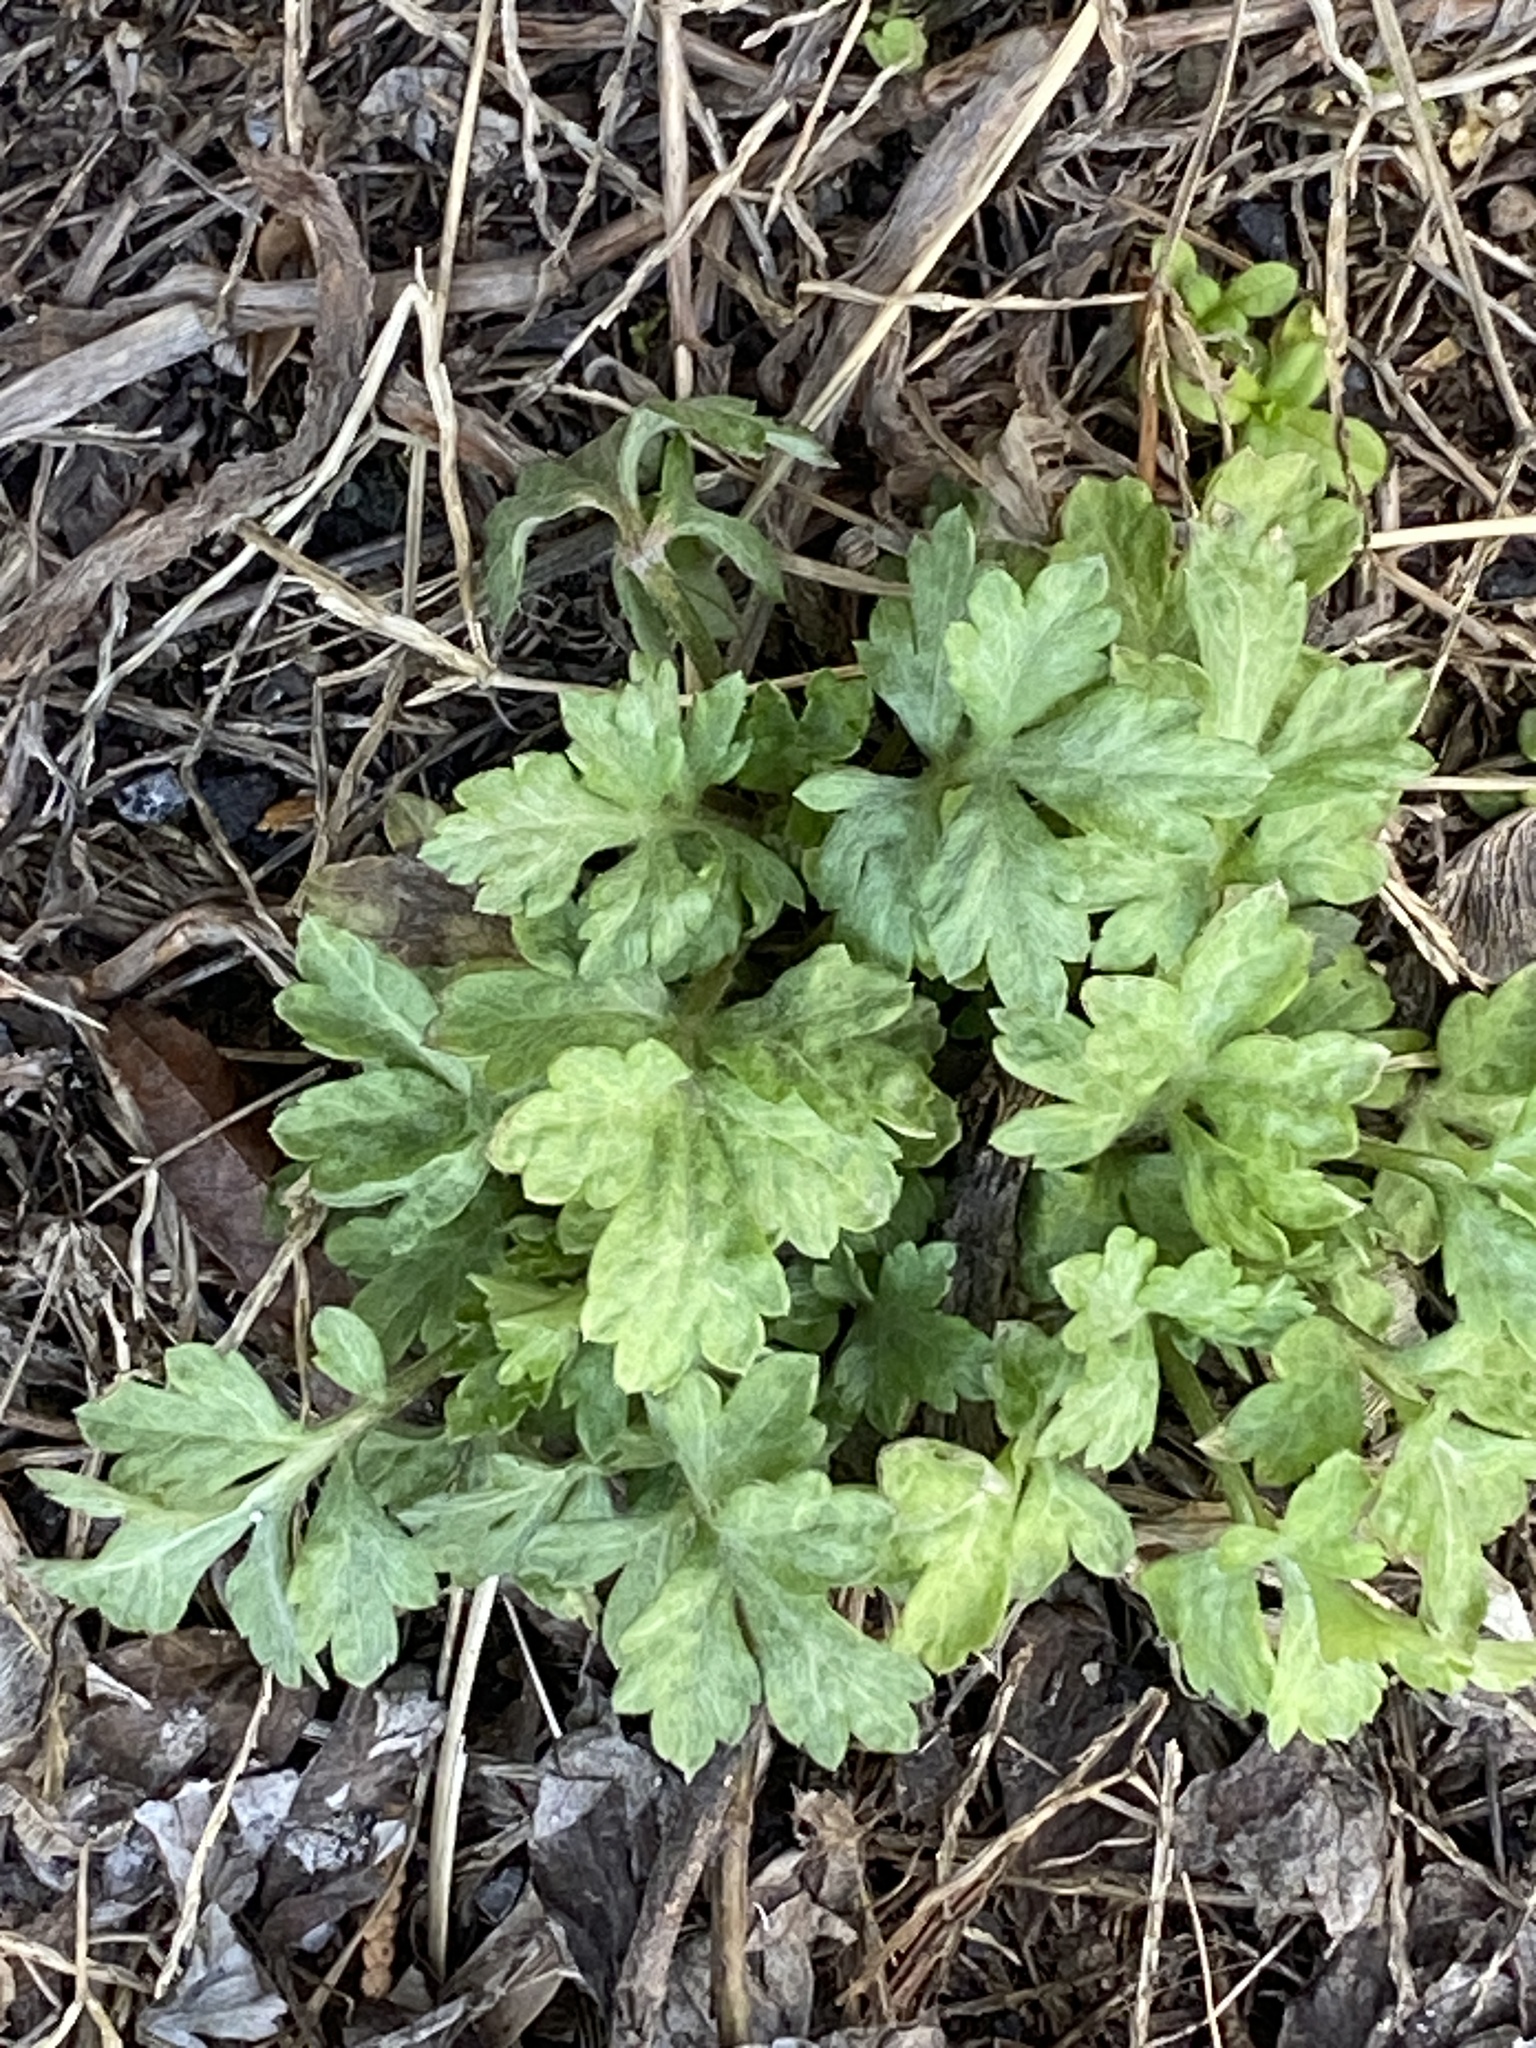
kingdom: Plantae
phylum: Tracheophyta
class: Magnoliopsida
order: Asterales
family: Asteraceae
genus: Artemisia
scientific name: Artemisia vulgaris
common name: Mugwort
